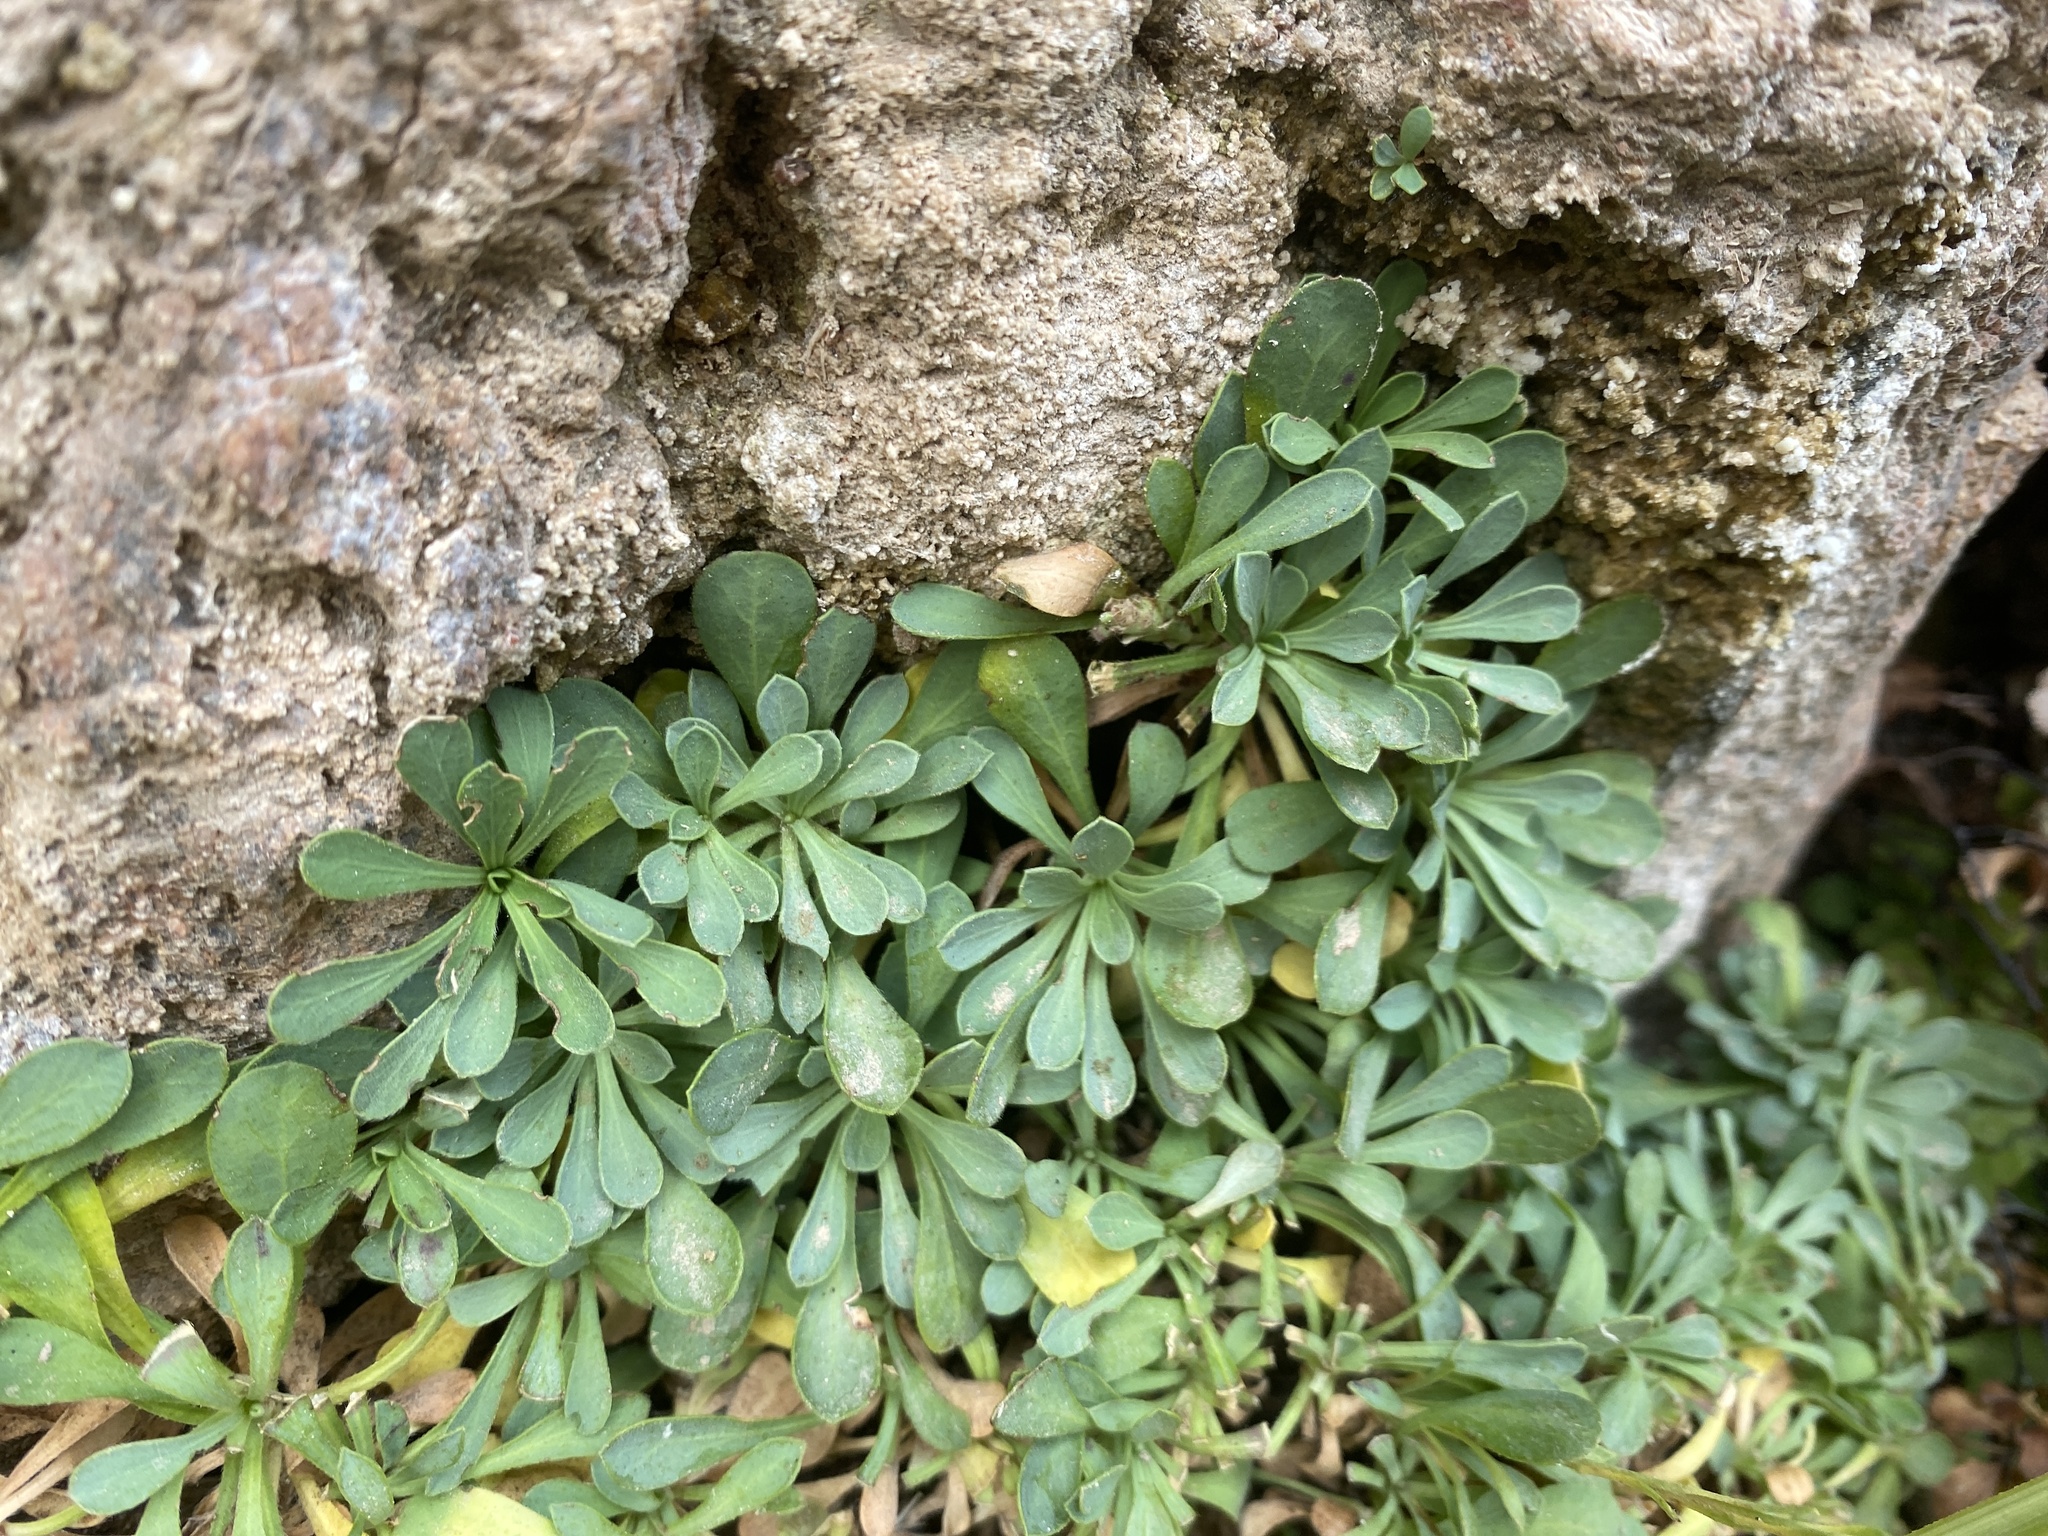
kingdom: Plantae
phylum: Tracheophyta
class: Magnoliopsida
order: Rosales
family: Rosaceae
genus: Petrophytum
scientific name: Petrophytum caespitosum
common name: Mat rockspirea
